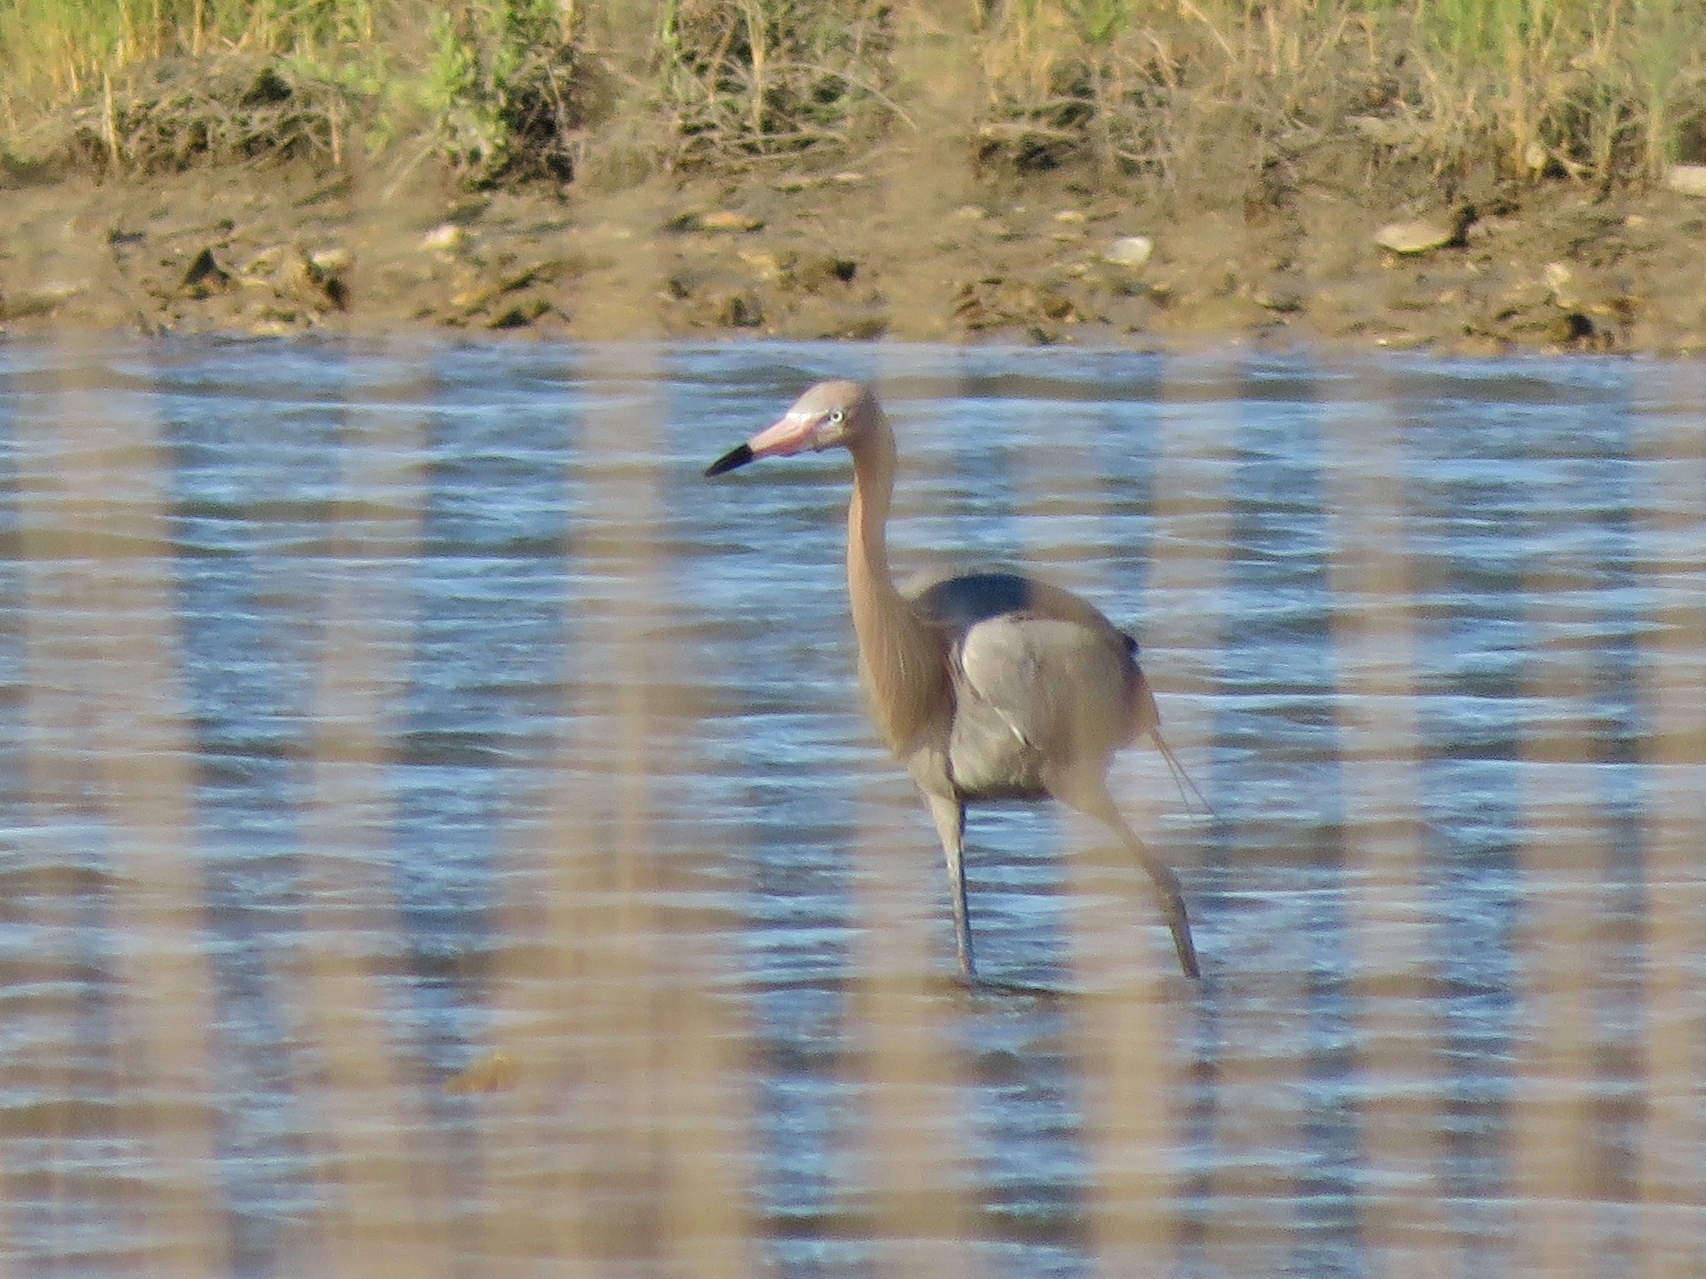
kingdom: Animalia
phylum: Chordata
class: Aves
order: Pelecaniformes
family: Ardeidae
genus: Egretta
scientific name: Egretta rufescens
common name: Reddish egret
